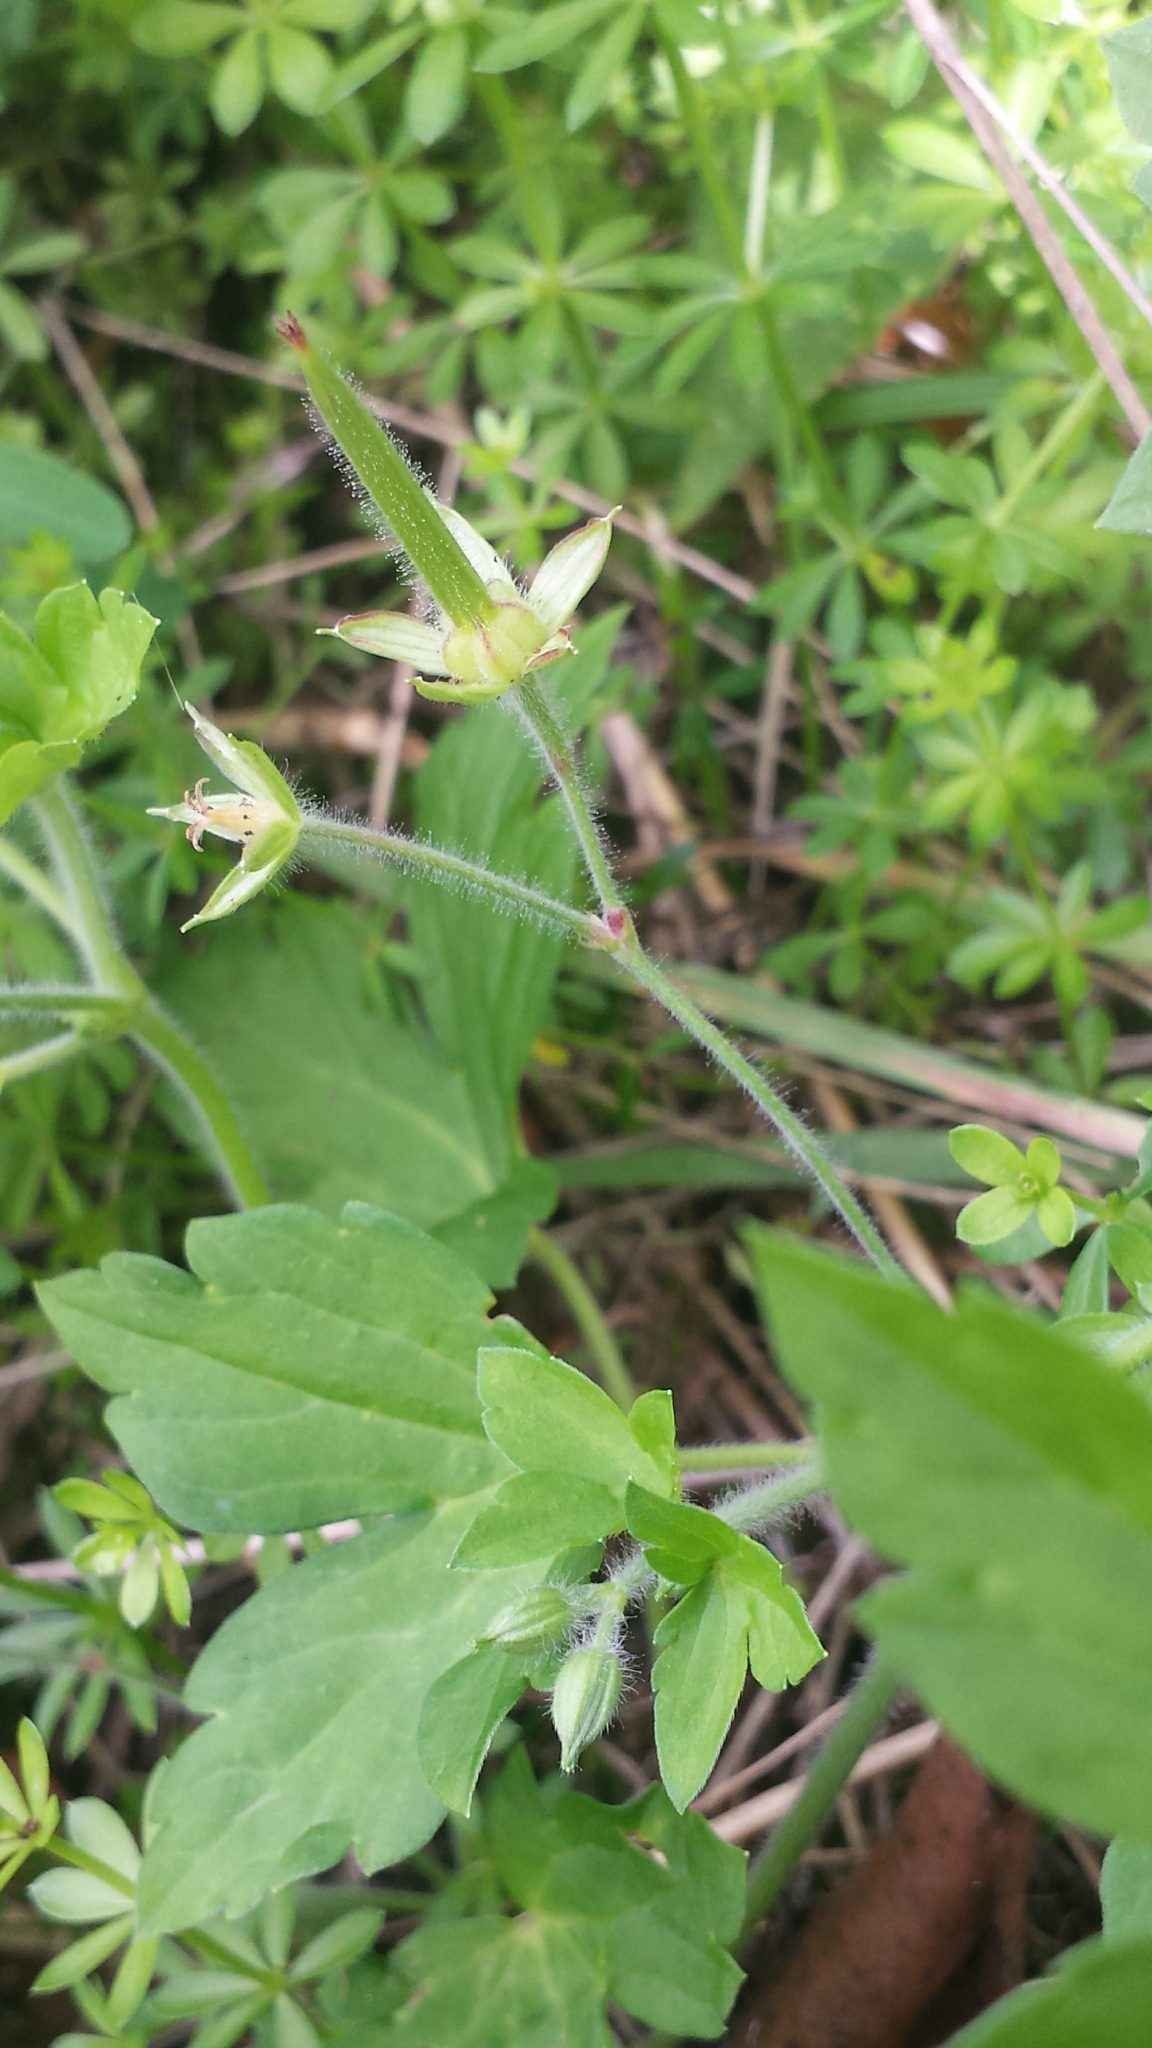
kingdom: Plantae
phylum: Tracheophyta
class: Magnoliopsida
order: Geraniales
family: Geraniaceae
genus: Geranium
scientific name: Geranium thunbergii
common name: Dewdrop crane's-bill
